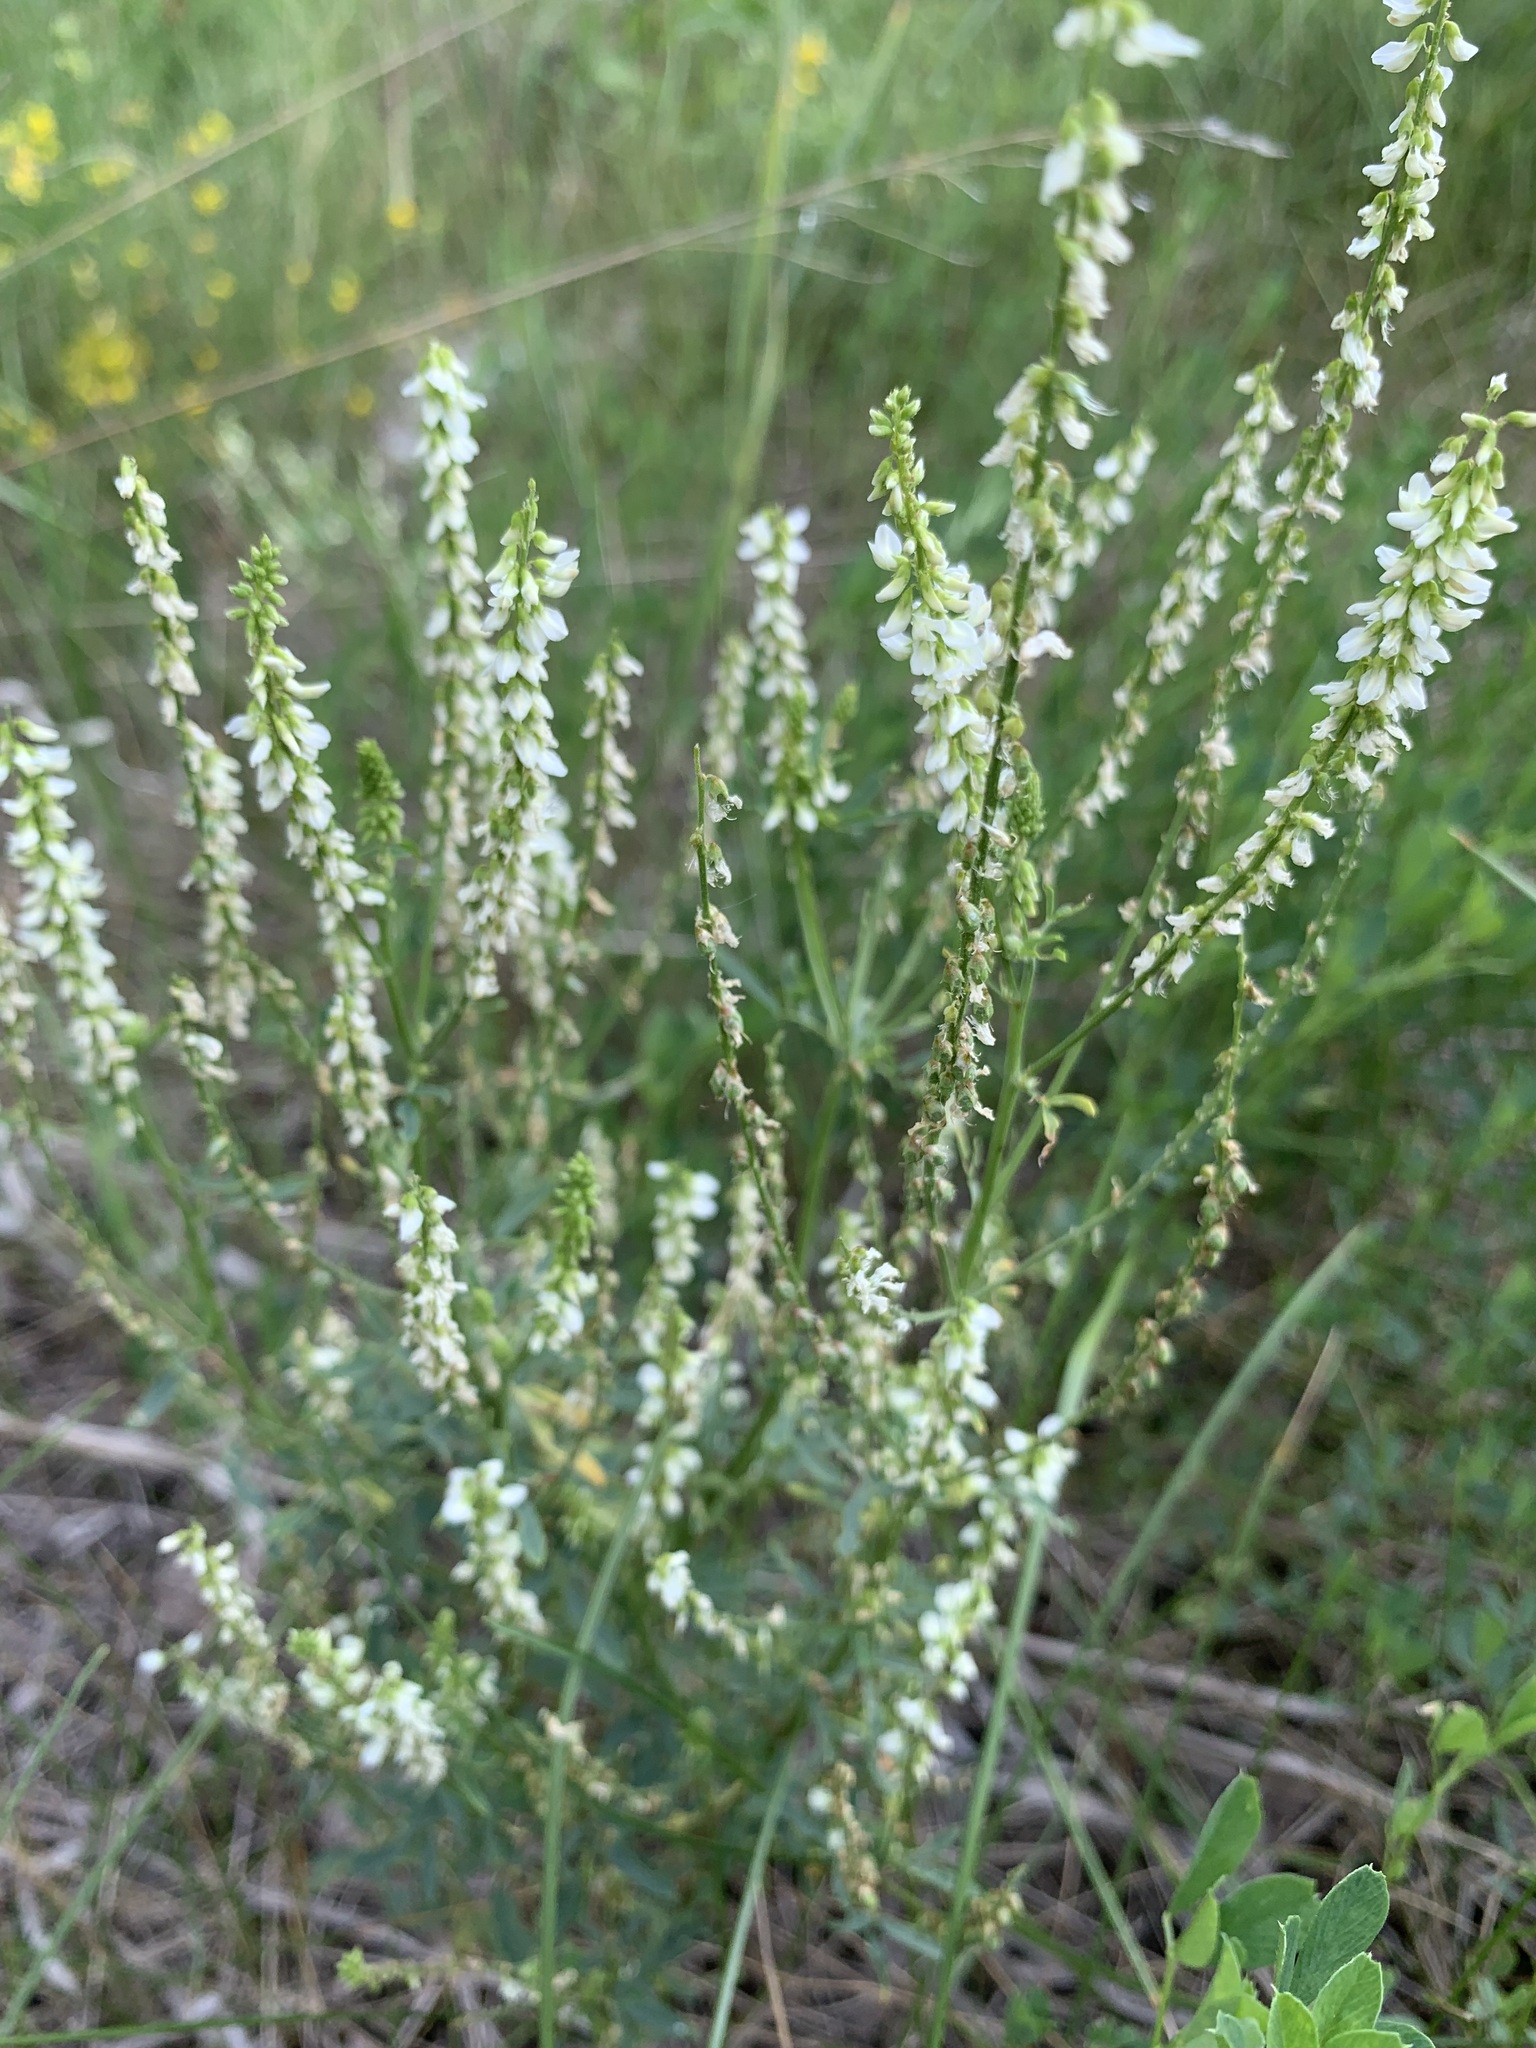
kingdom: Plantae
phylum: Tracheophyta
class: Magnoliopsida
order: Fabales
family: Fabaceae
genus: Melilotus
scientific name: Melilotus albus
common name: White melilot
